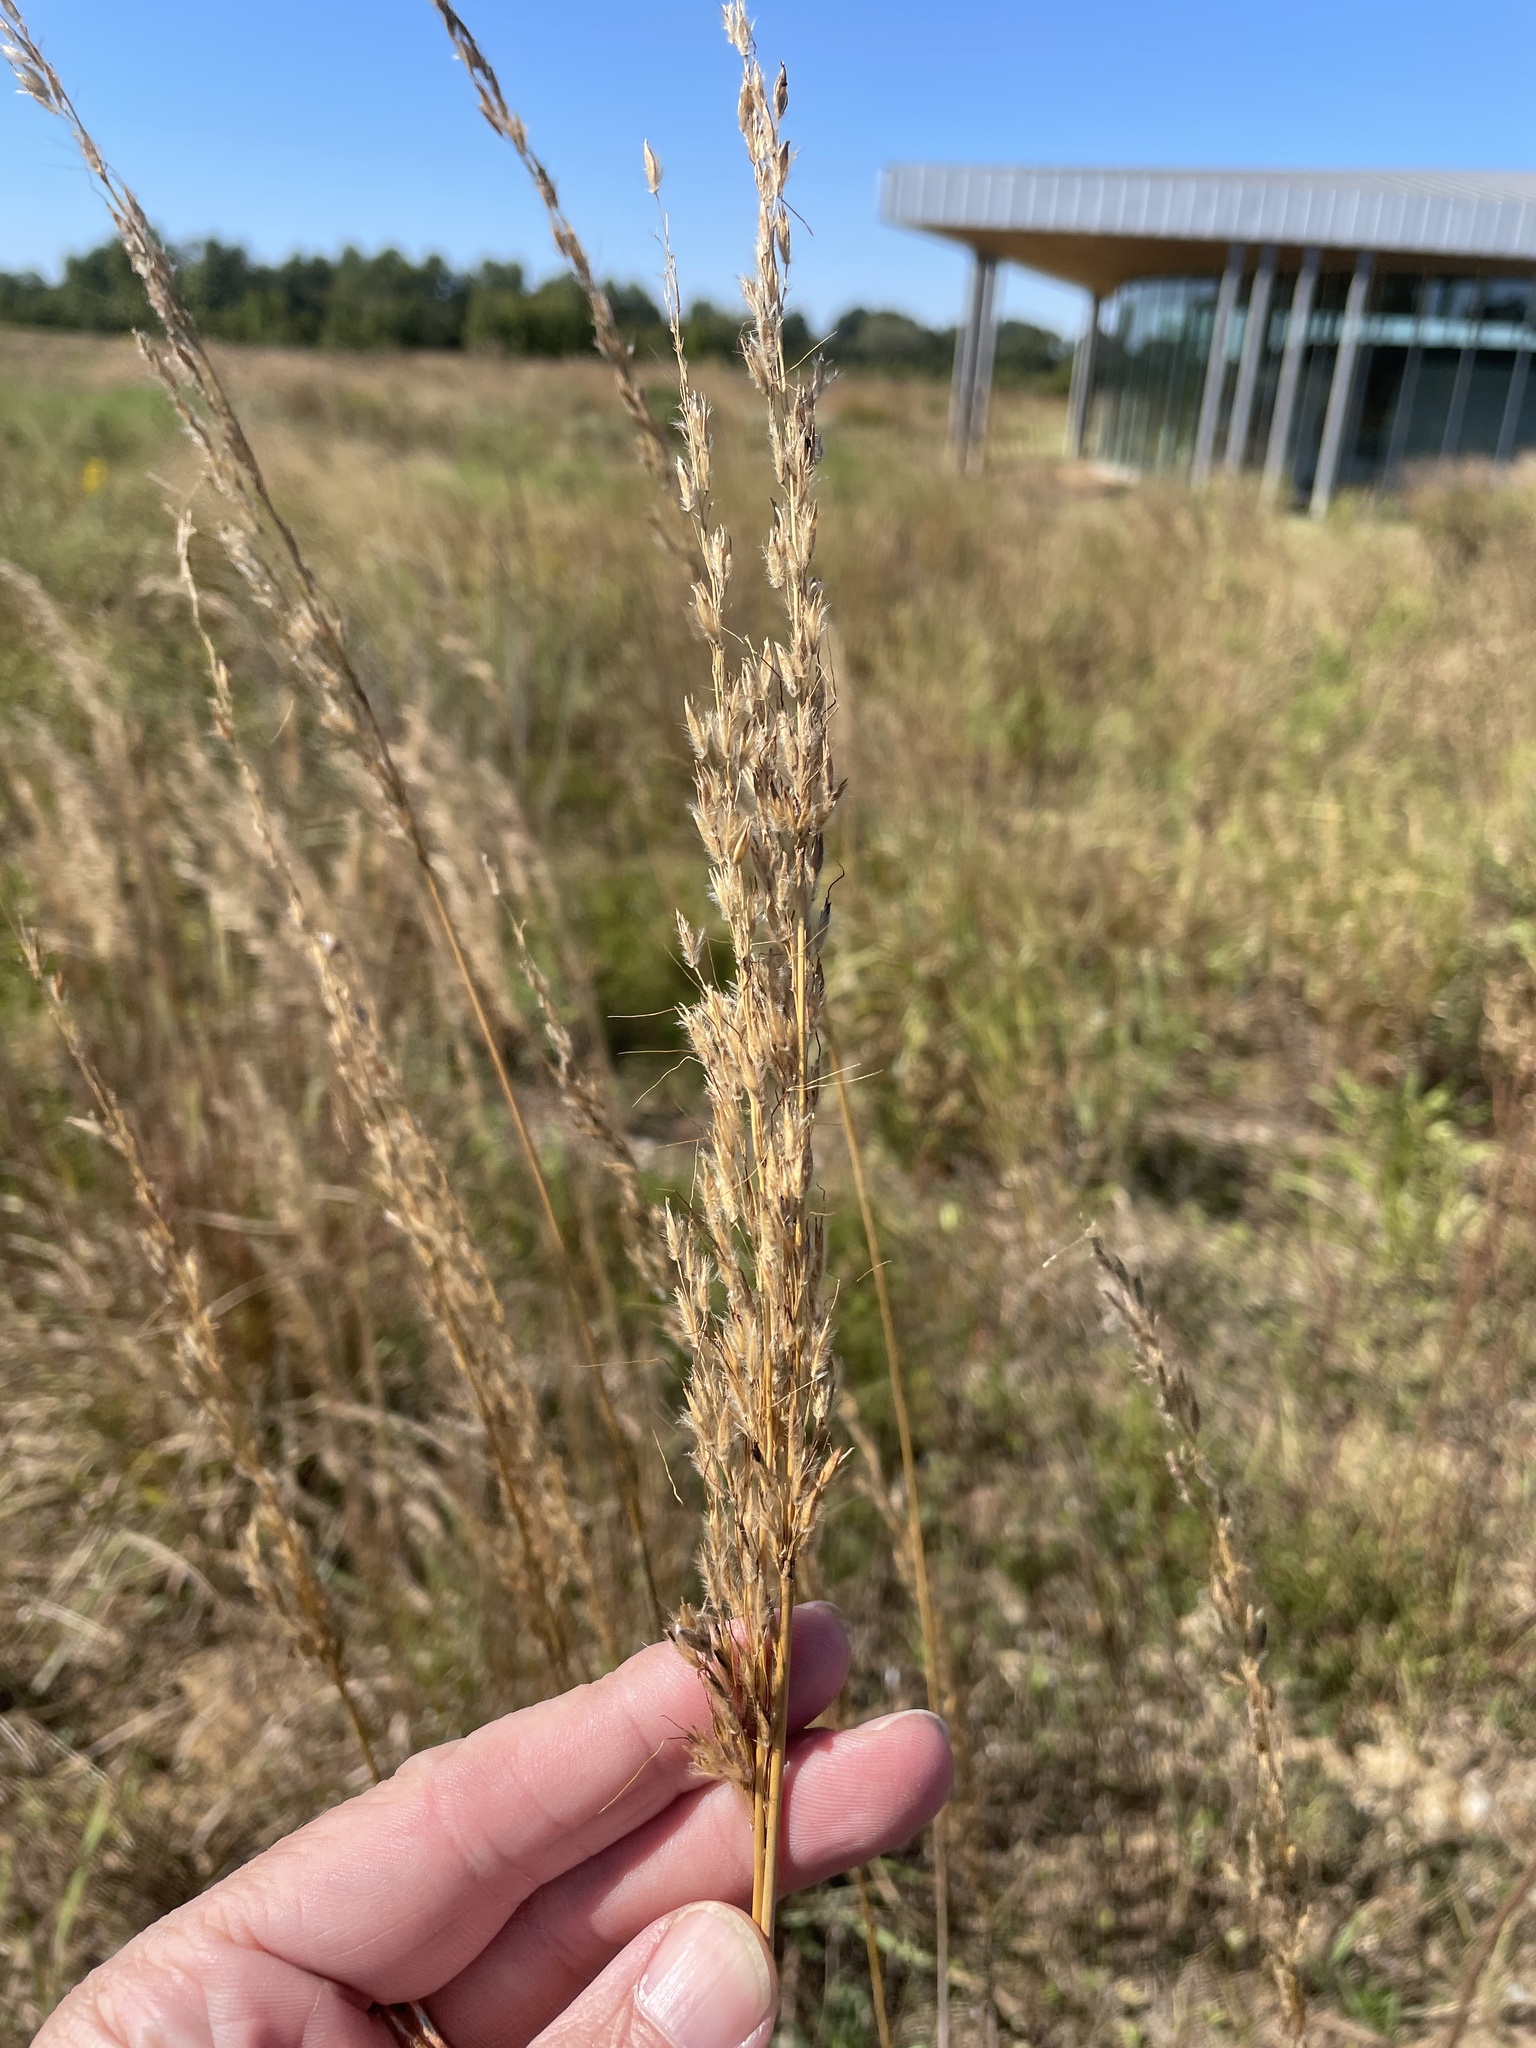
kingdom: Plantae
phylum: Tracheophyta
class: Liliopsida
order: Poales
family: Poaceae
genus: Sorghastrum
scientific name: Sorghastrum nutans
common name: Indian grass
